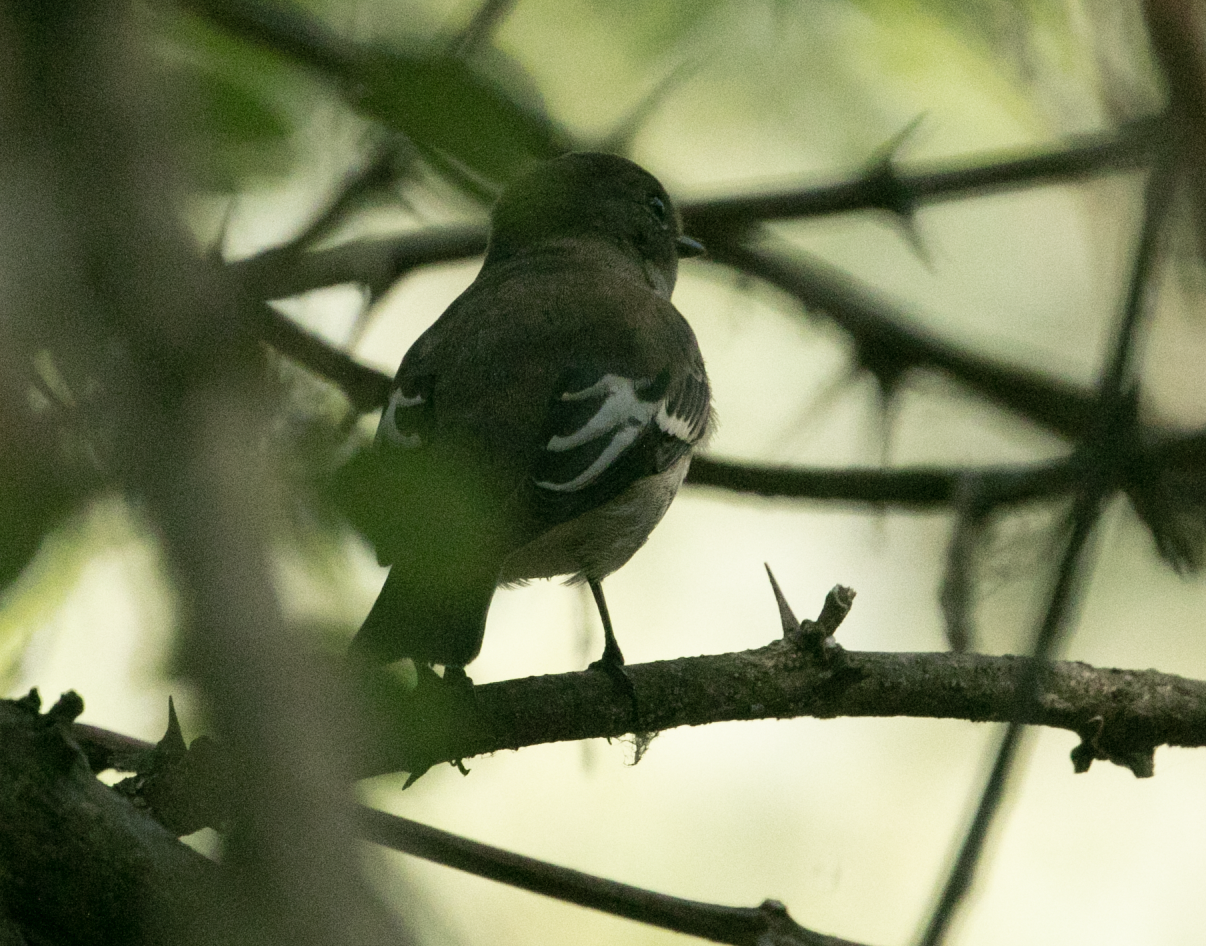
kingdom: Animalia
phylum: Chordata
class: Aves
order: Passeriformes
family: Muscicapidae
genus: Ficedula
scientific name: Ficedula hypoleuca
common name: European pied flycatcher
